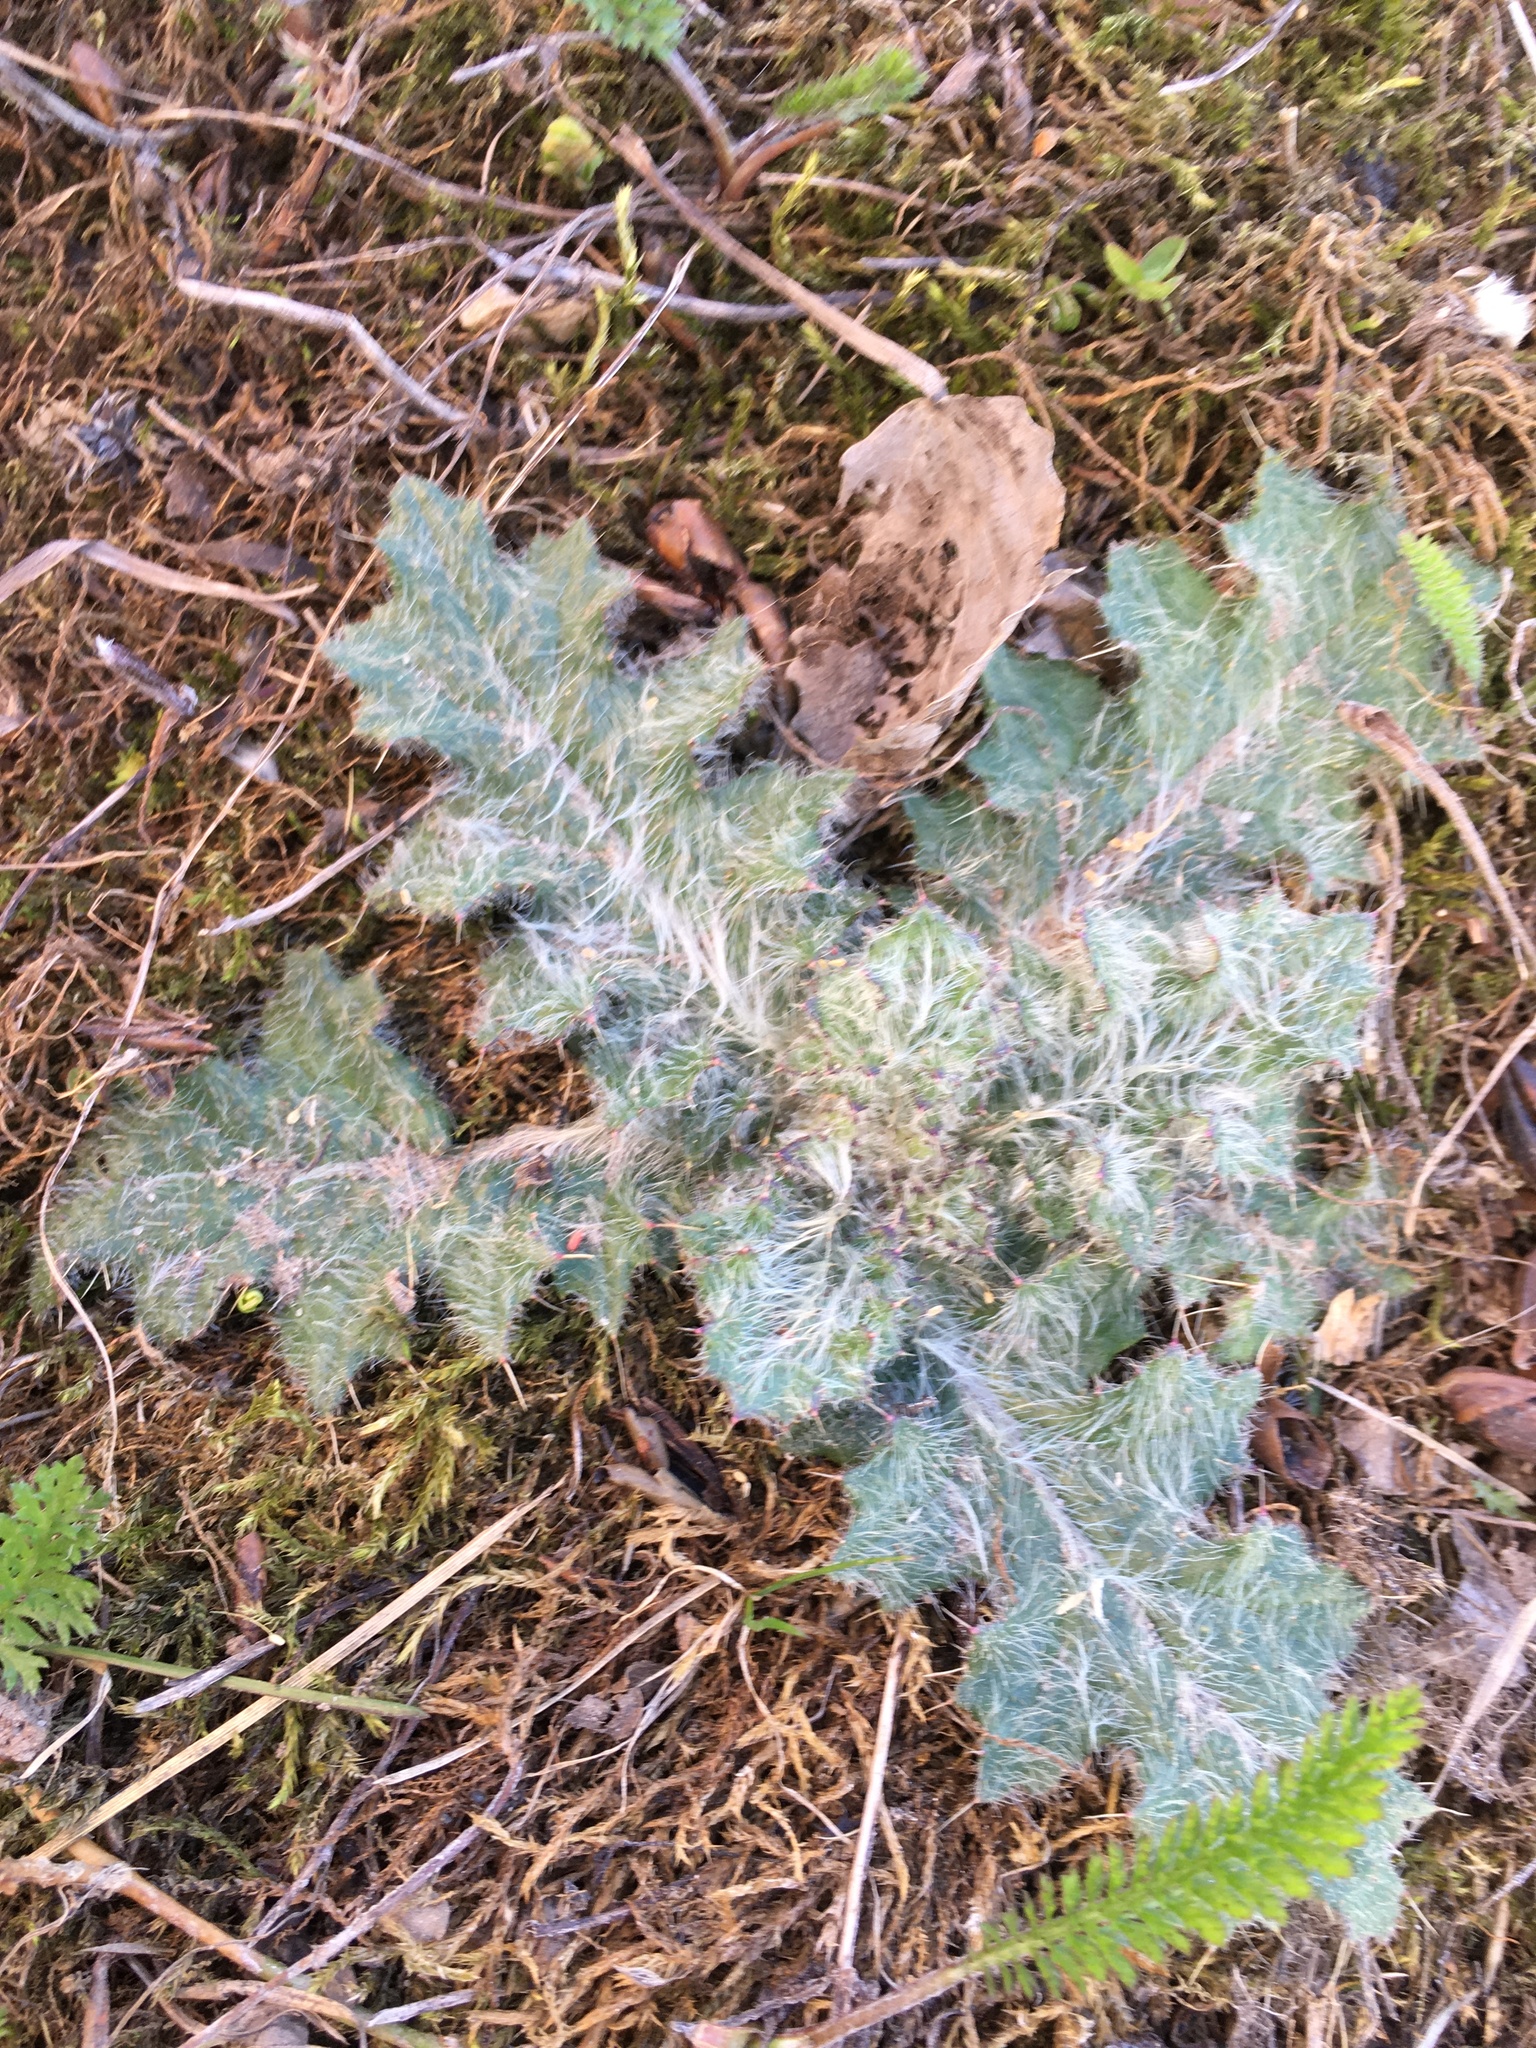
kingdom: Plantae
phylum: Tracheophyta
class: Magnoliopsida
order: Asterales
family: Asteraceae
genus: Cirsium
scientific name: Cirsium vulgare
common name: Bull thistle
